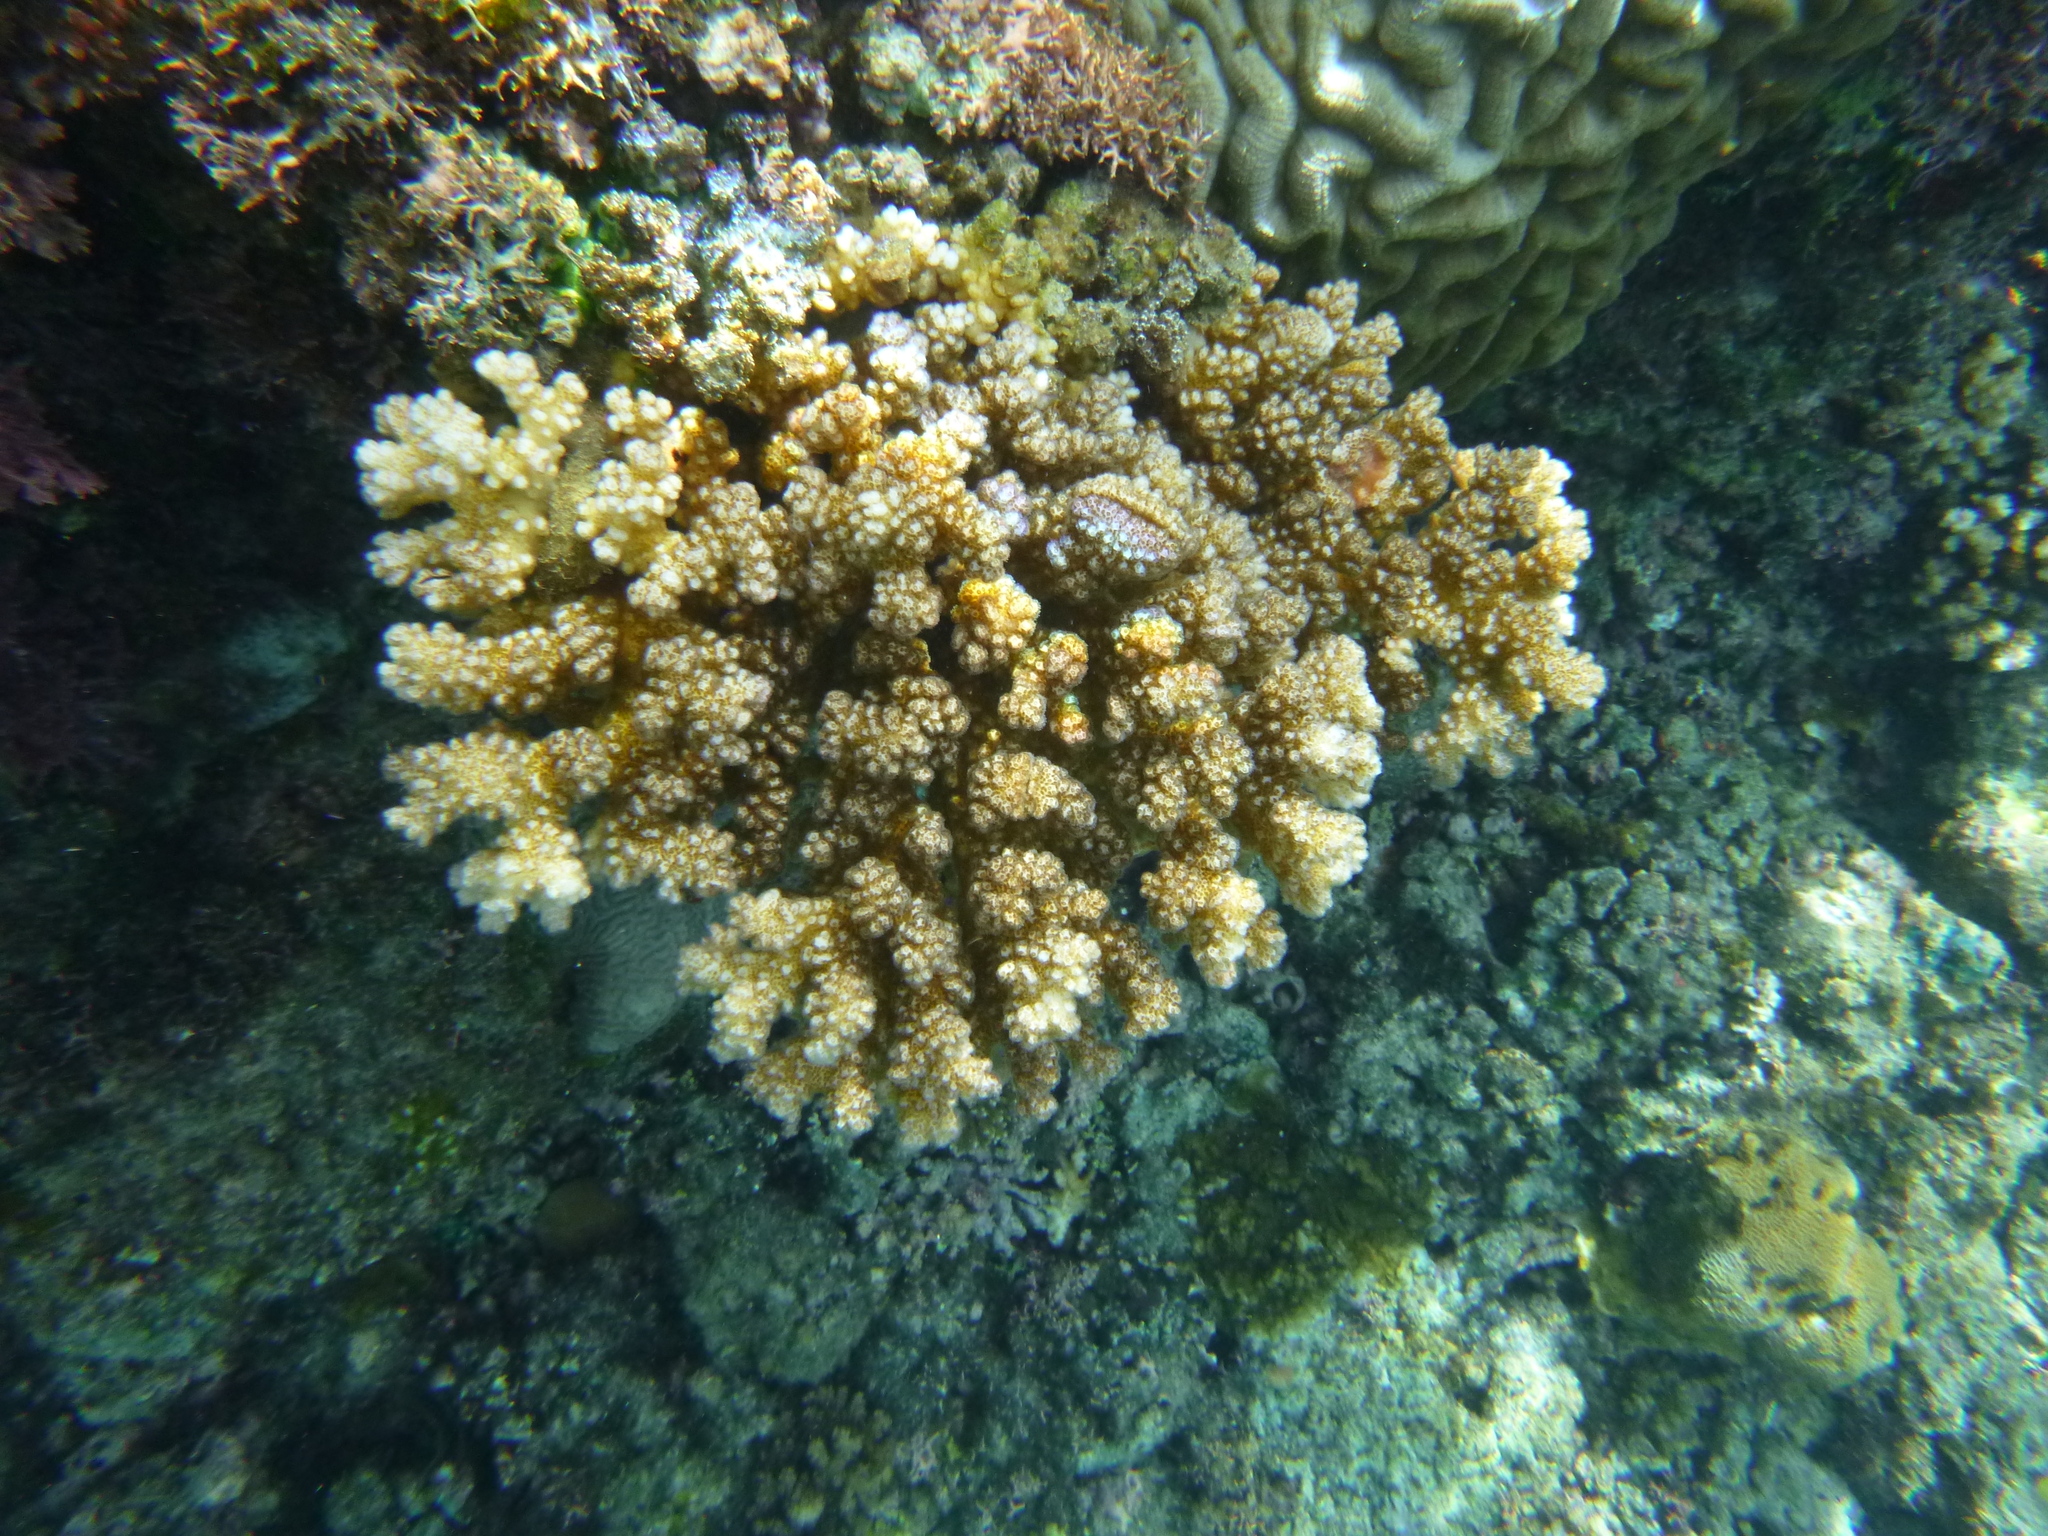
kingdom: Animalia
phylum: Cnidaria
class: Anthozoa
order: Scleractinia
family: Pocilloporidae
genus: Pocillopora
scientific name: Pocillopora verrucosa
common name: Cauliflower coral
